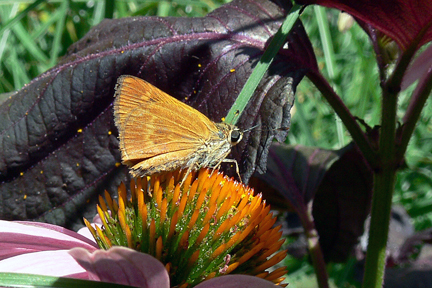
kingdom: Animalia
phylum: Arthropoda
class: Insecta
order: Lepidoptera
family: Hesperiidae
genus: Polites
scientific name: Polites otho
